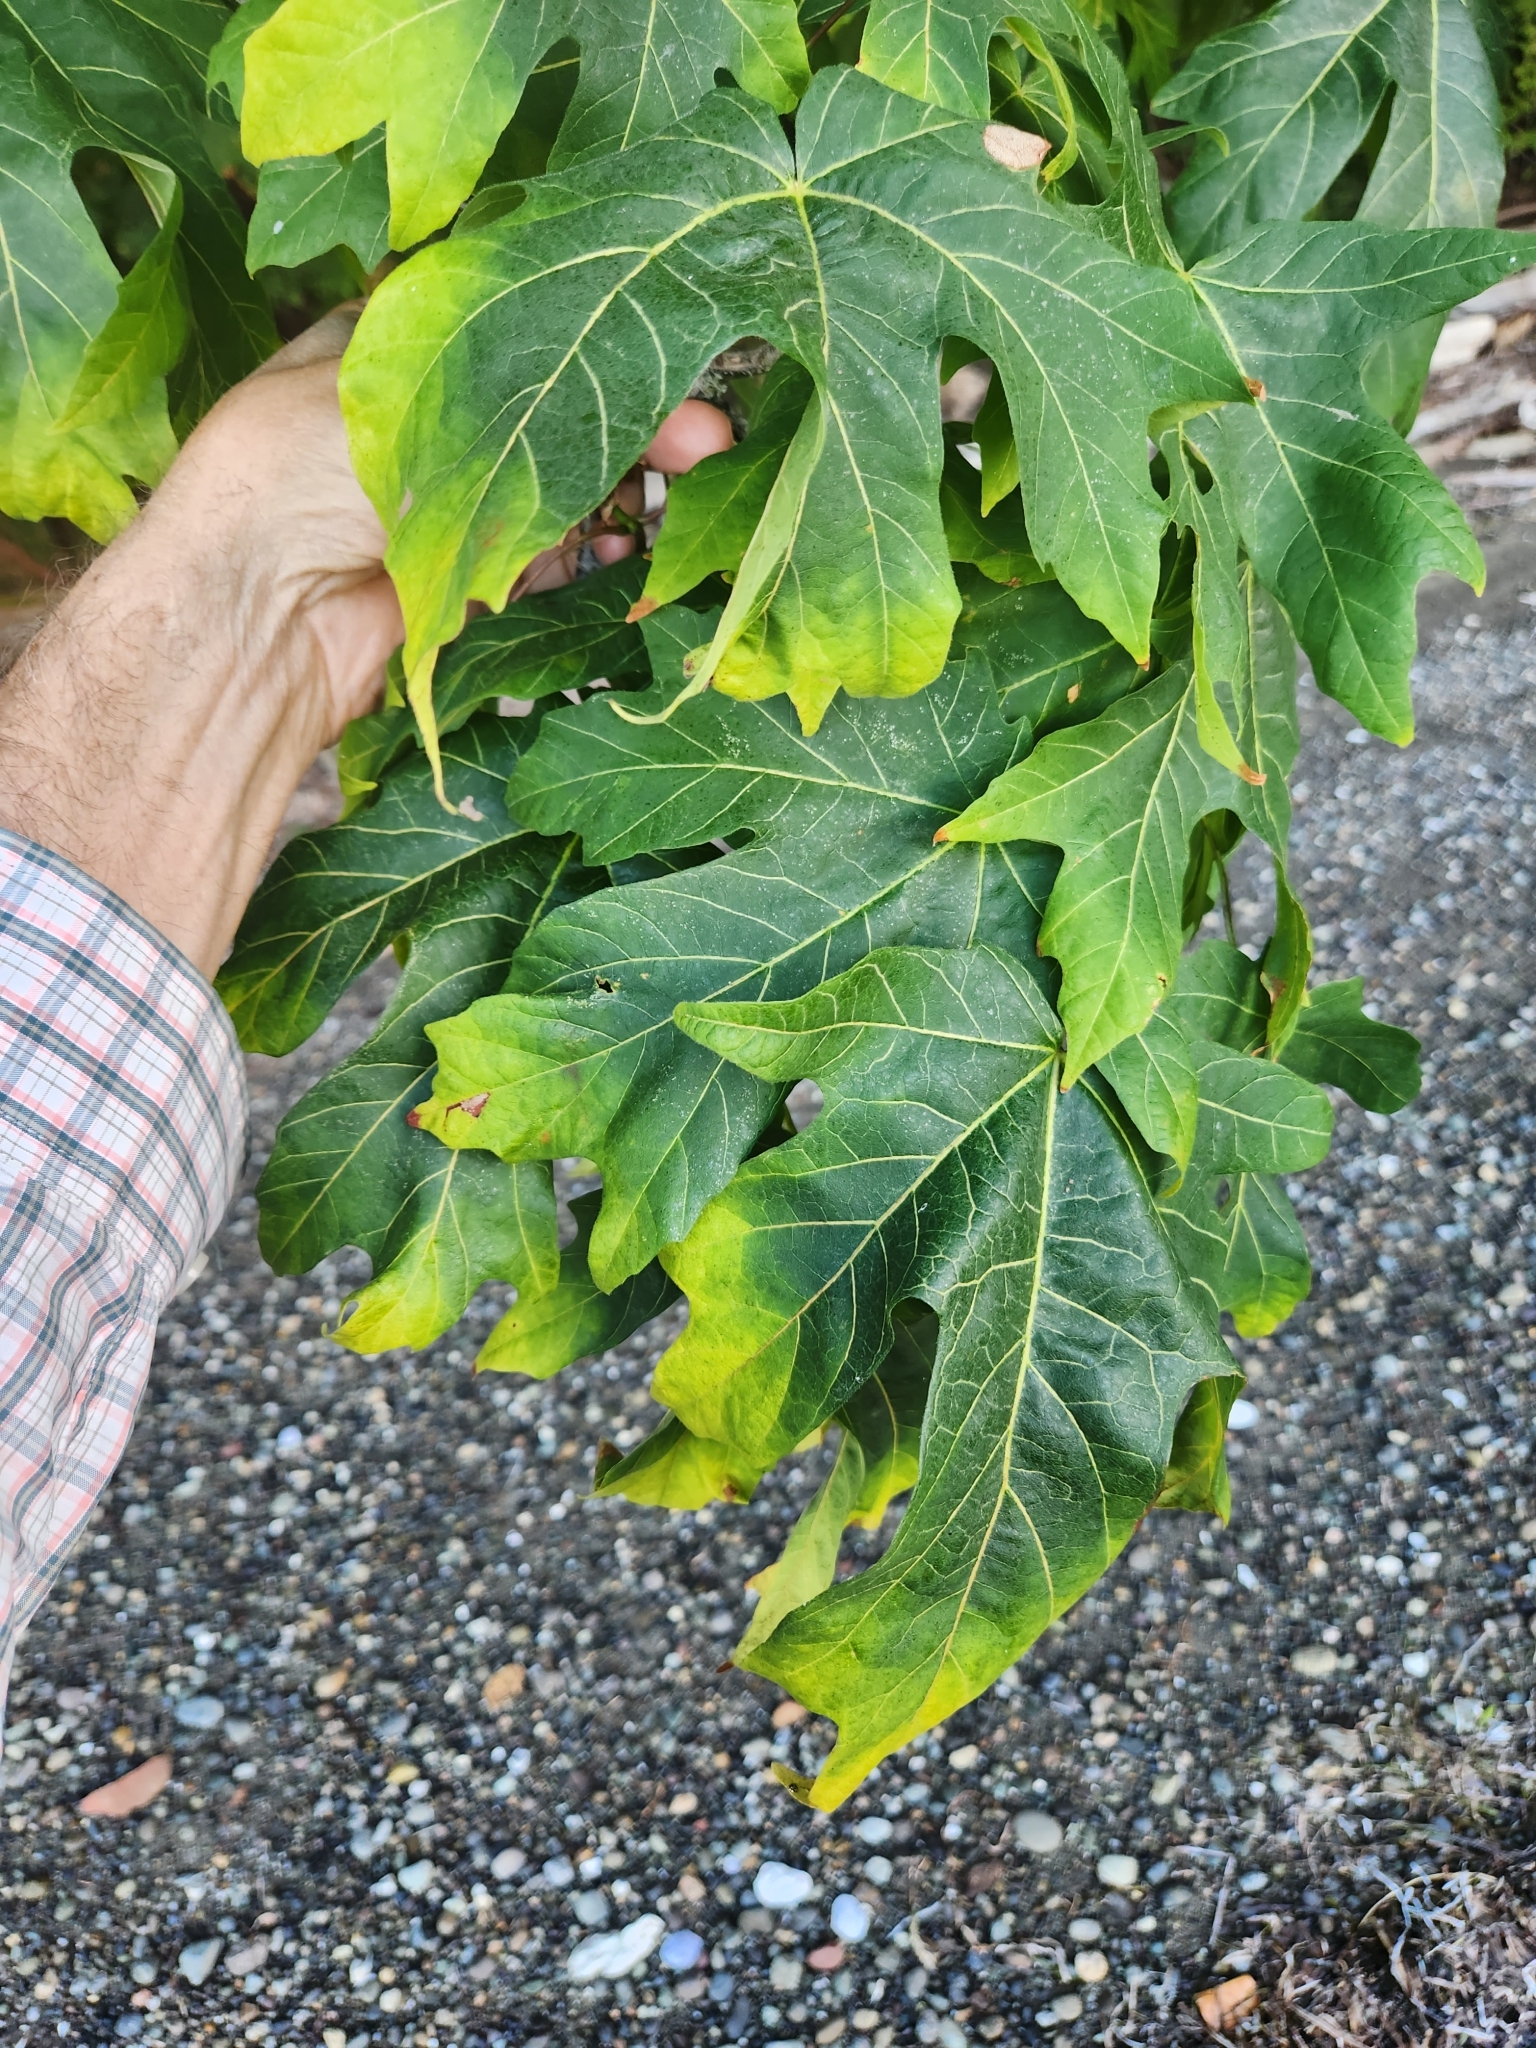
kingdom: Plantae
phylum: Tracheophyta
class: Magnoliopsida
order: Sapindales
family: Sapindaceae
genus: Acer
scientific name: Acer macrophyllum
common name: Oregon maple
